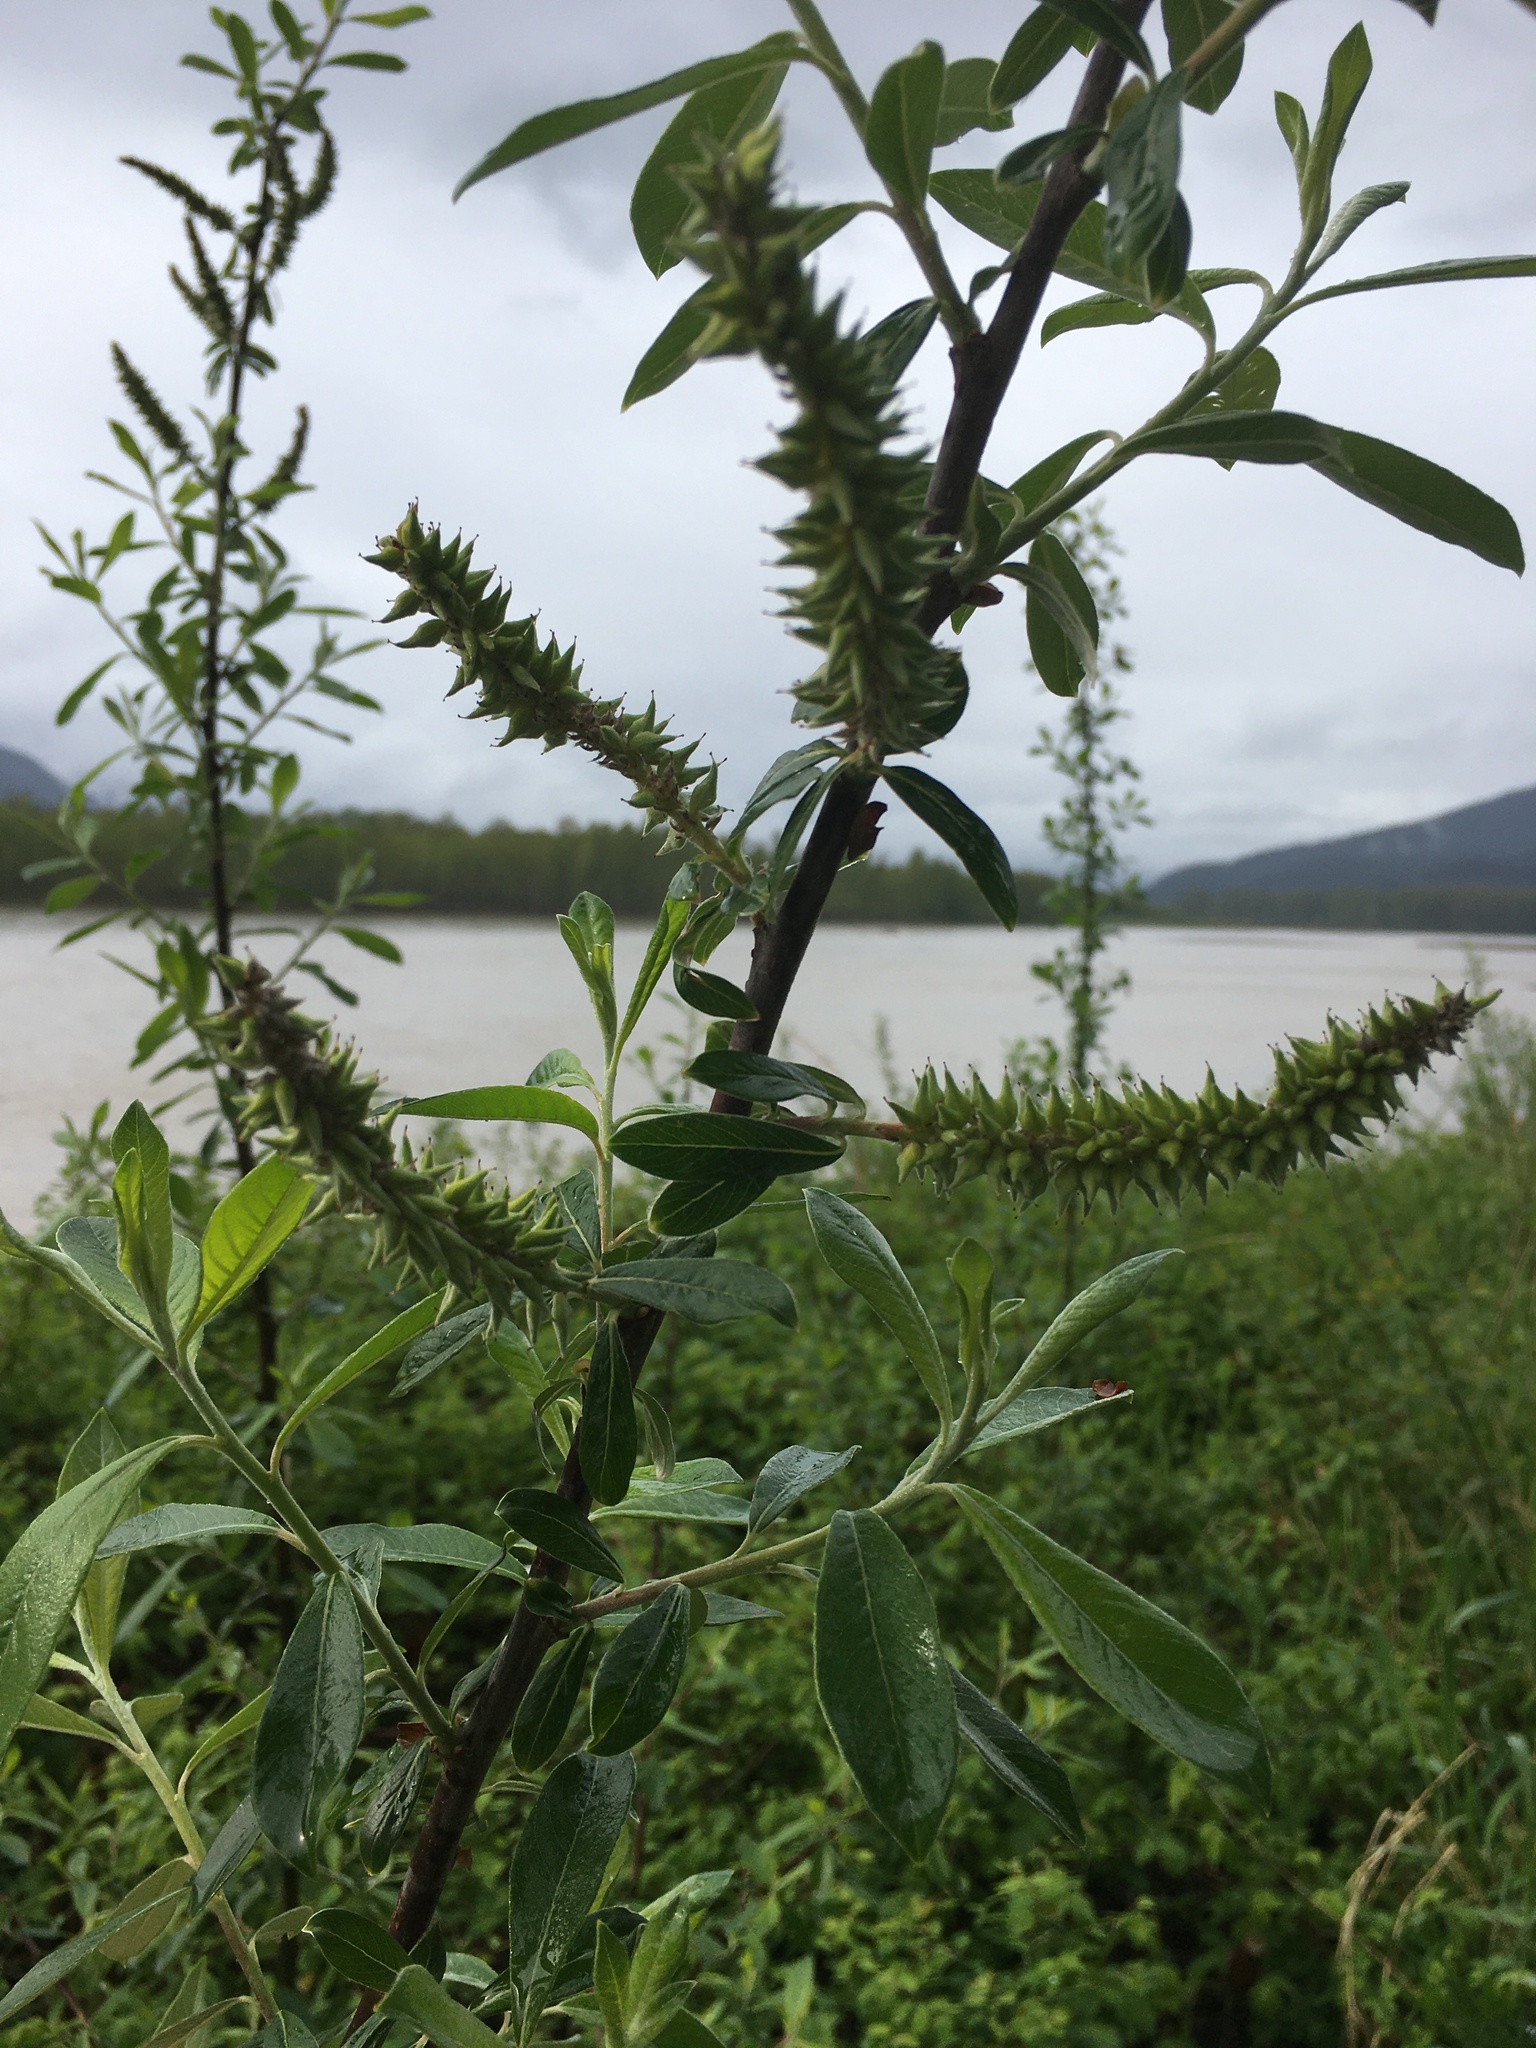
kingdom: Plantae
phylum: Tracheophyta
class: Magnoliopsida
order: Malpighiales
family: Salicaceae
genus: Salix
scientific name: Salix sitchensis
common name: Sitka willow
